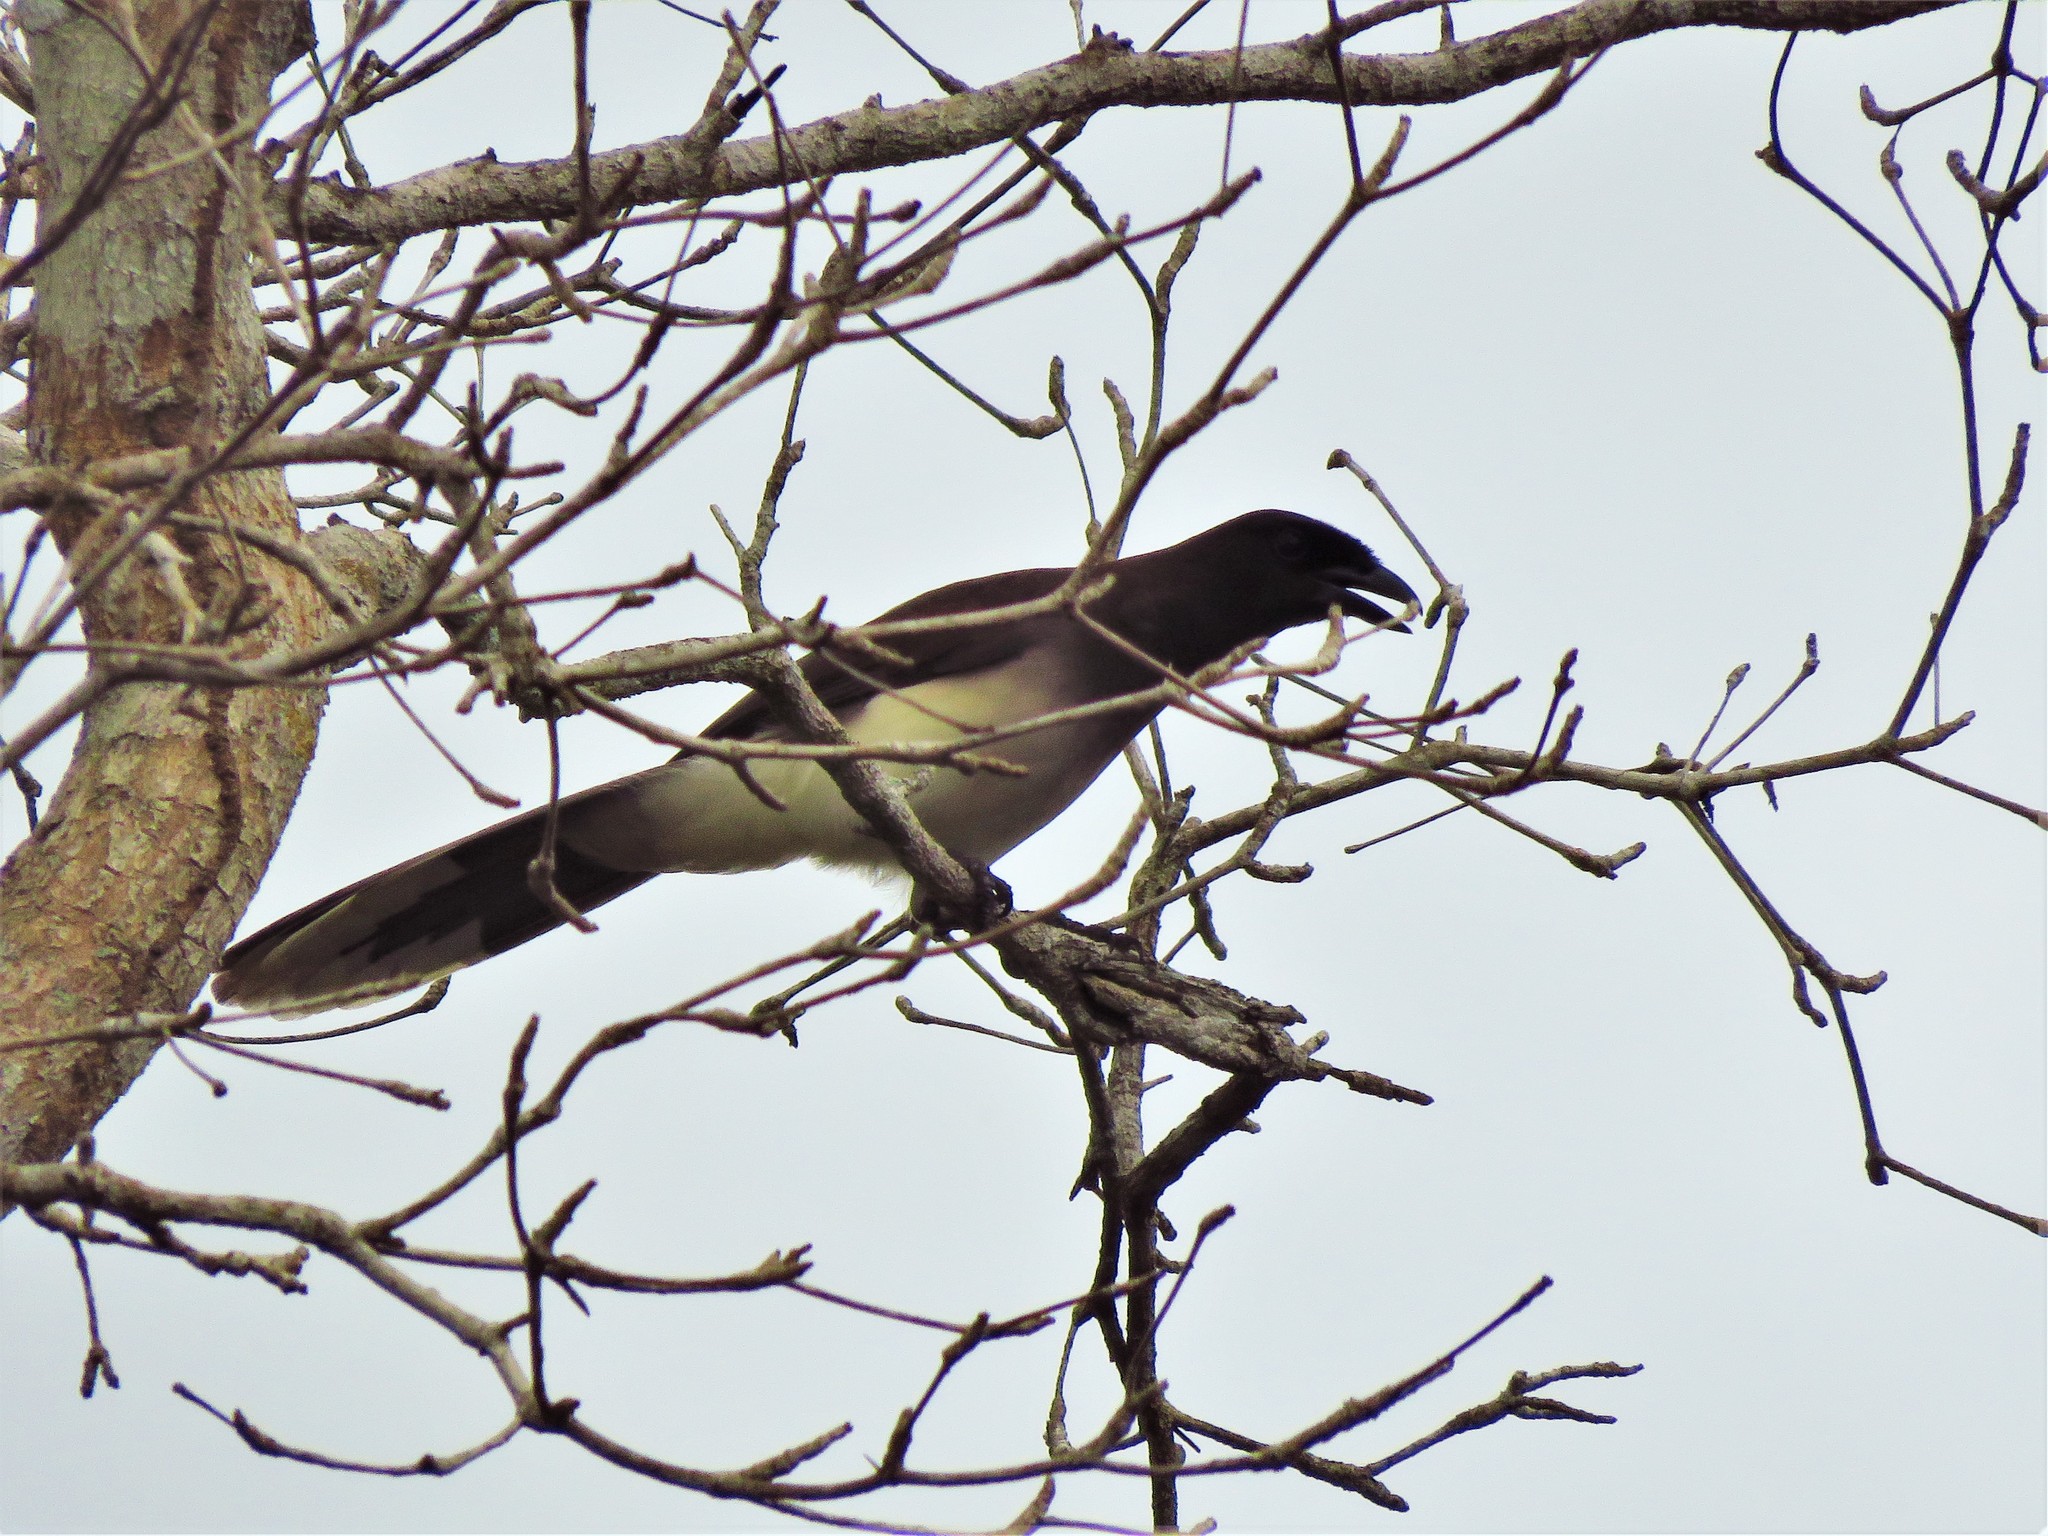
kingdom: Animalia
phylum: Chordata
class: Aves
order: Passeriformes
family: Corvidae
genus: Psilorhinus
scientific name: Psilorhinus morio
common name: Brown jay
